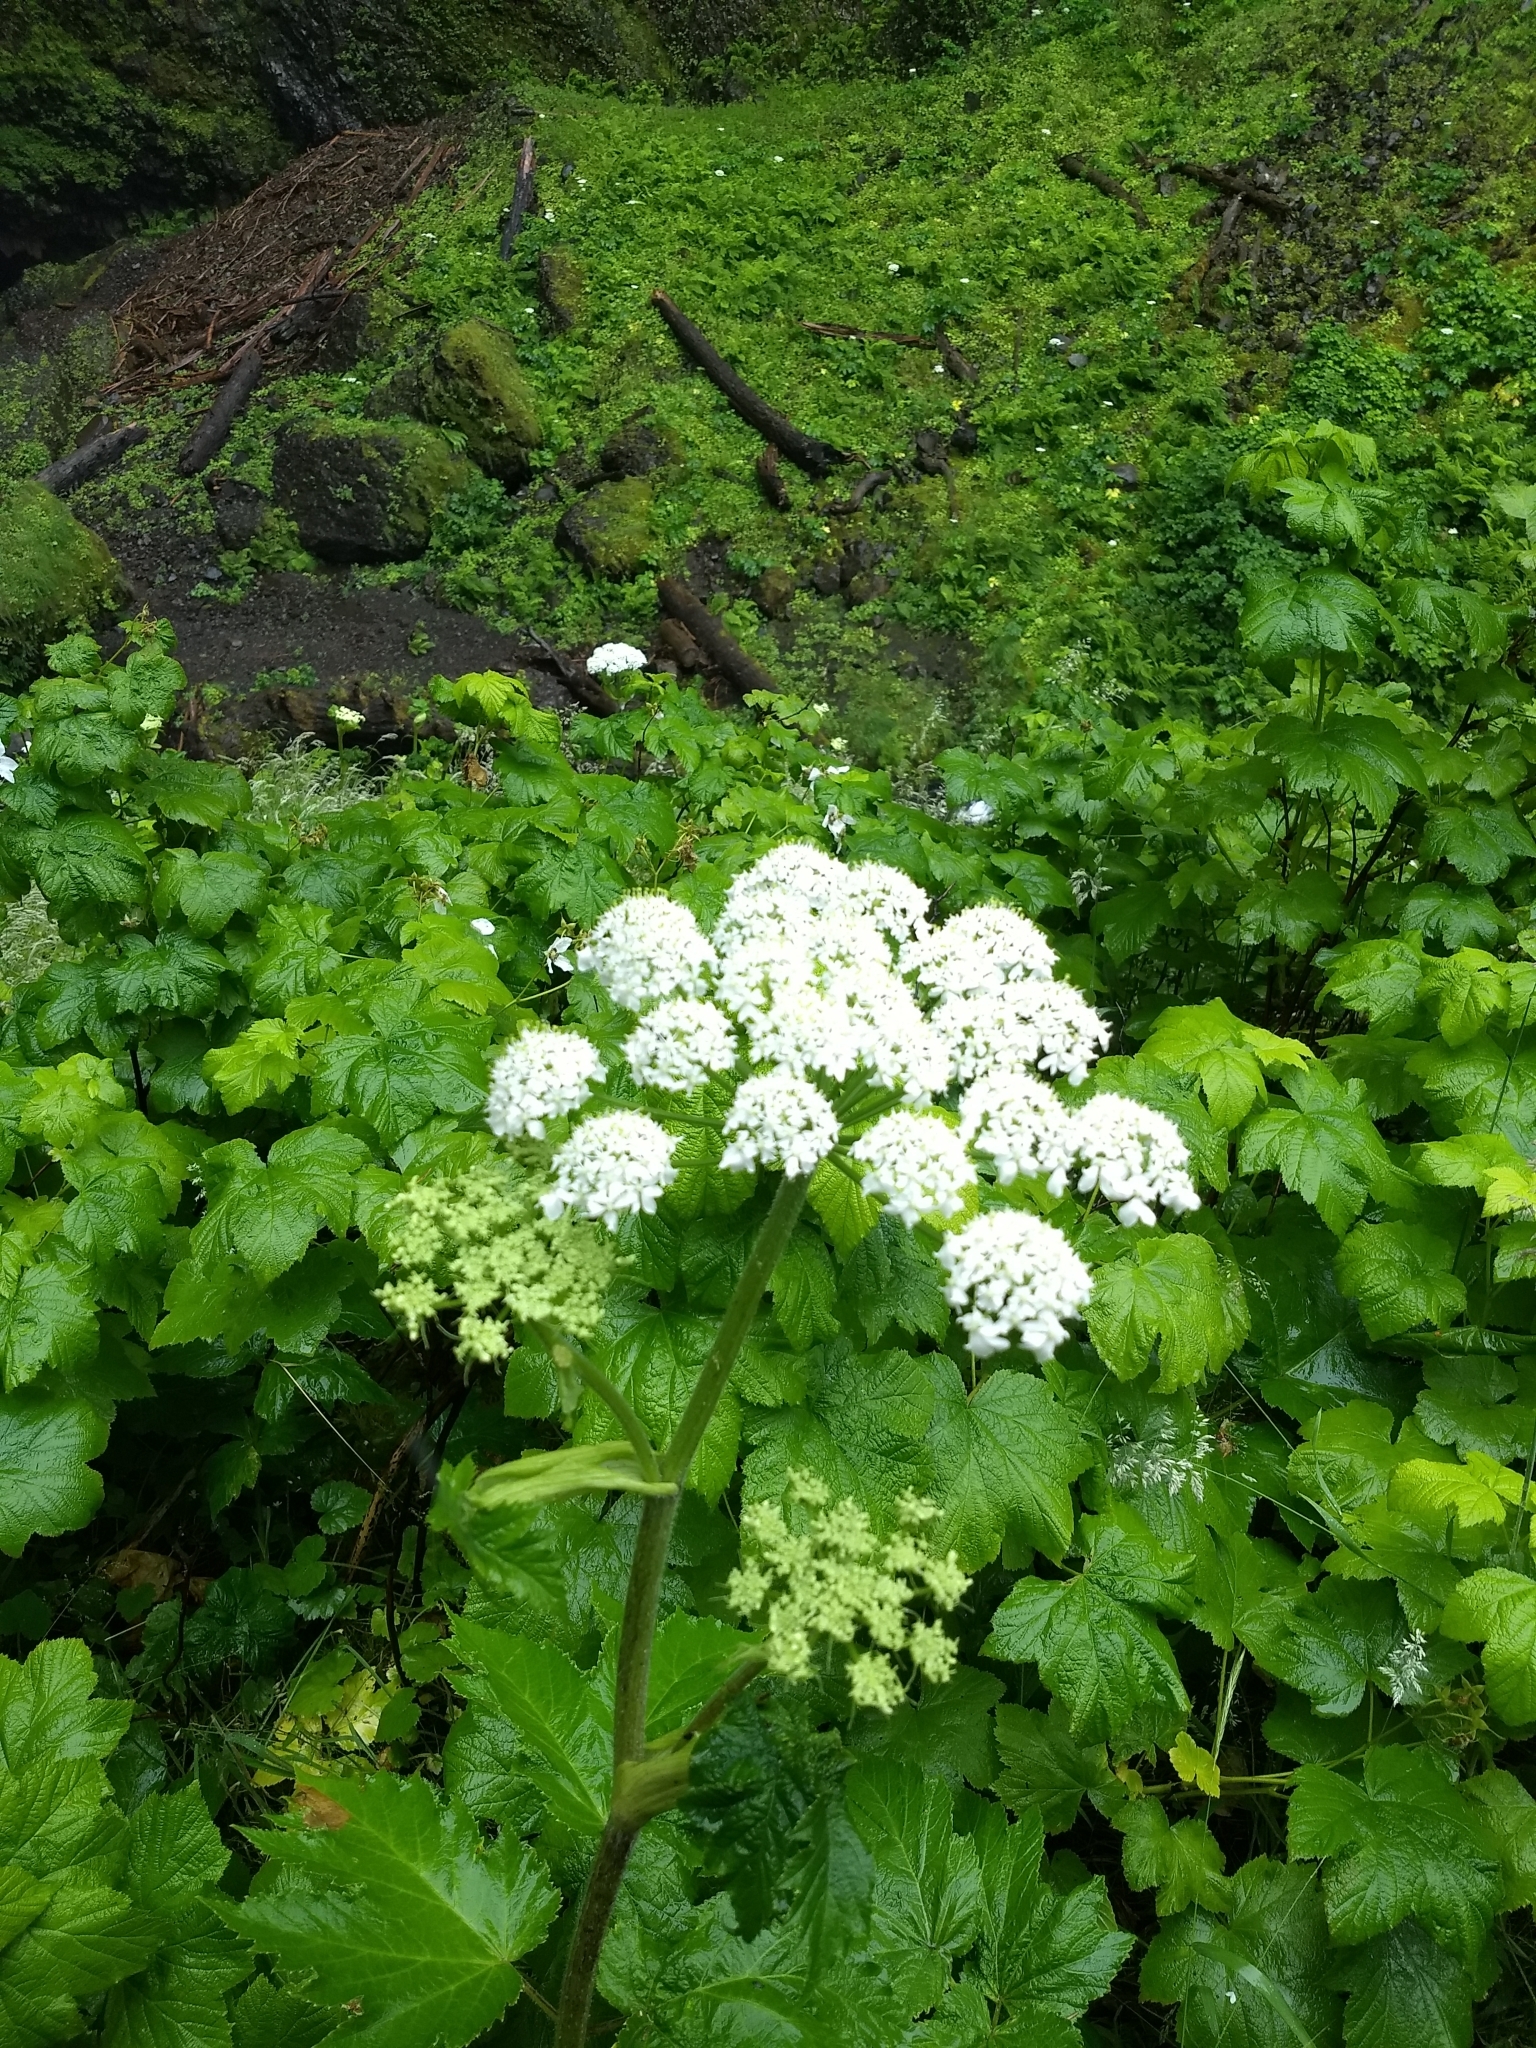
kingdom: Plantae
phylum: Tracheophyta
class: Magnoliopsida
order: Apiales
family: Apiaceae
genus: Heracleum
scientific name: Heracleum maximum
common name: American cow parsnip
